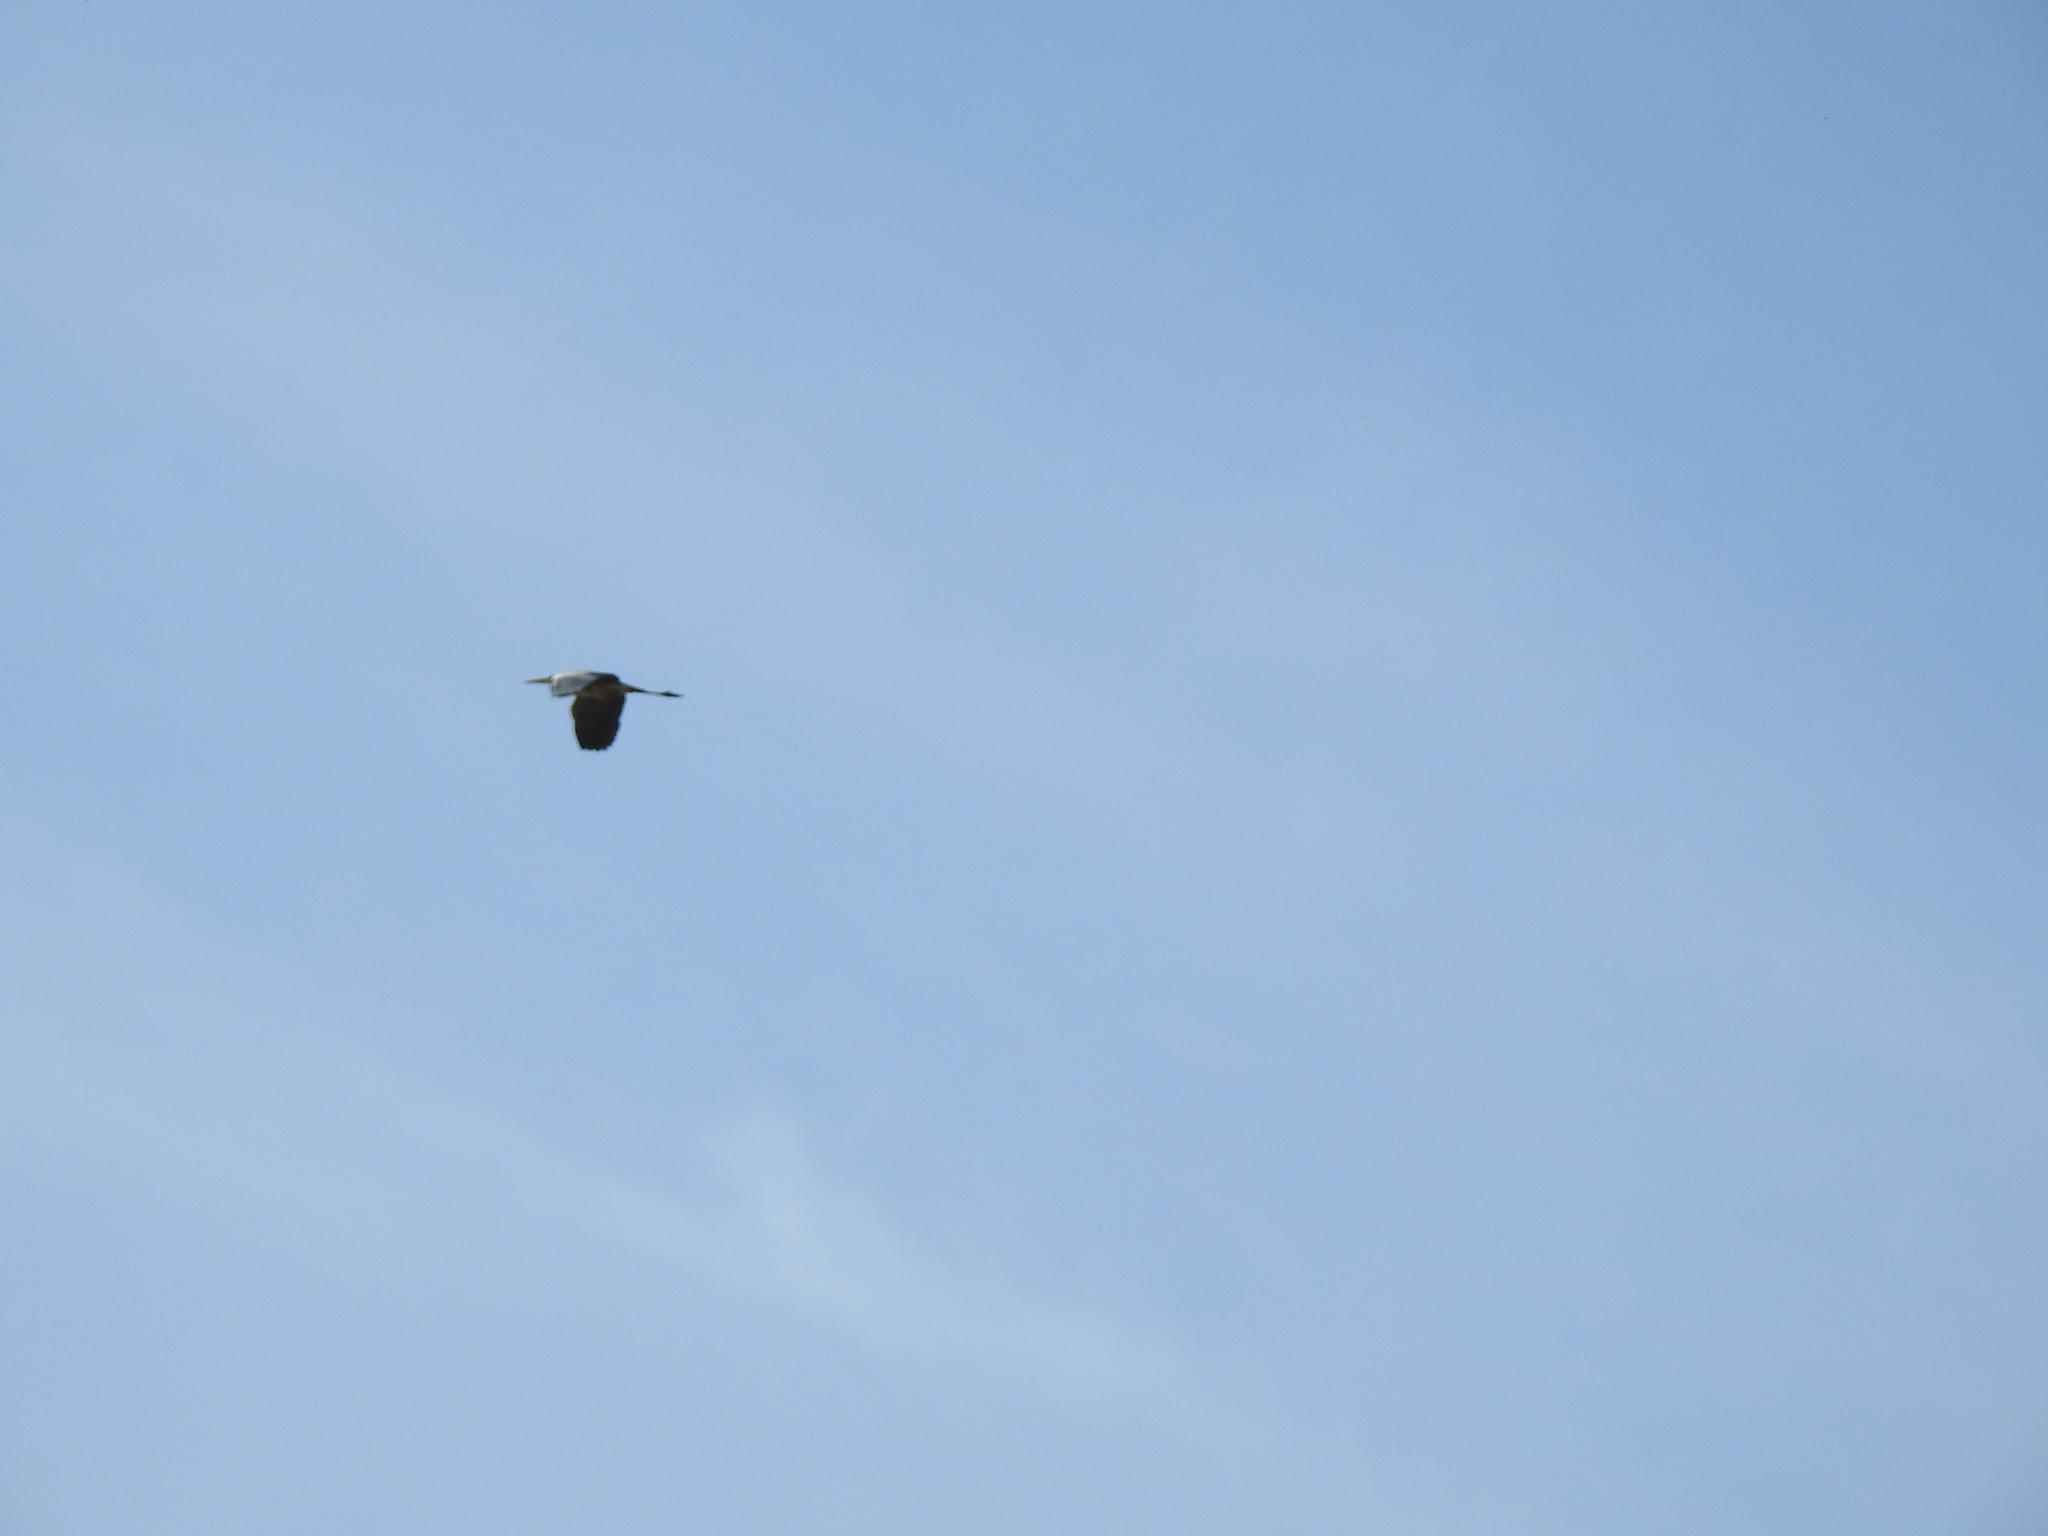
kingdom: Animalia
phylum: Chordata
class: Aves
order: Pelecaniformes
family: Ardeidae
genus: Ardea
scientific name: Ardea cinerea
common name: Grey heron
